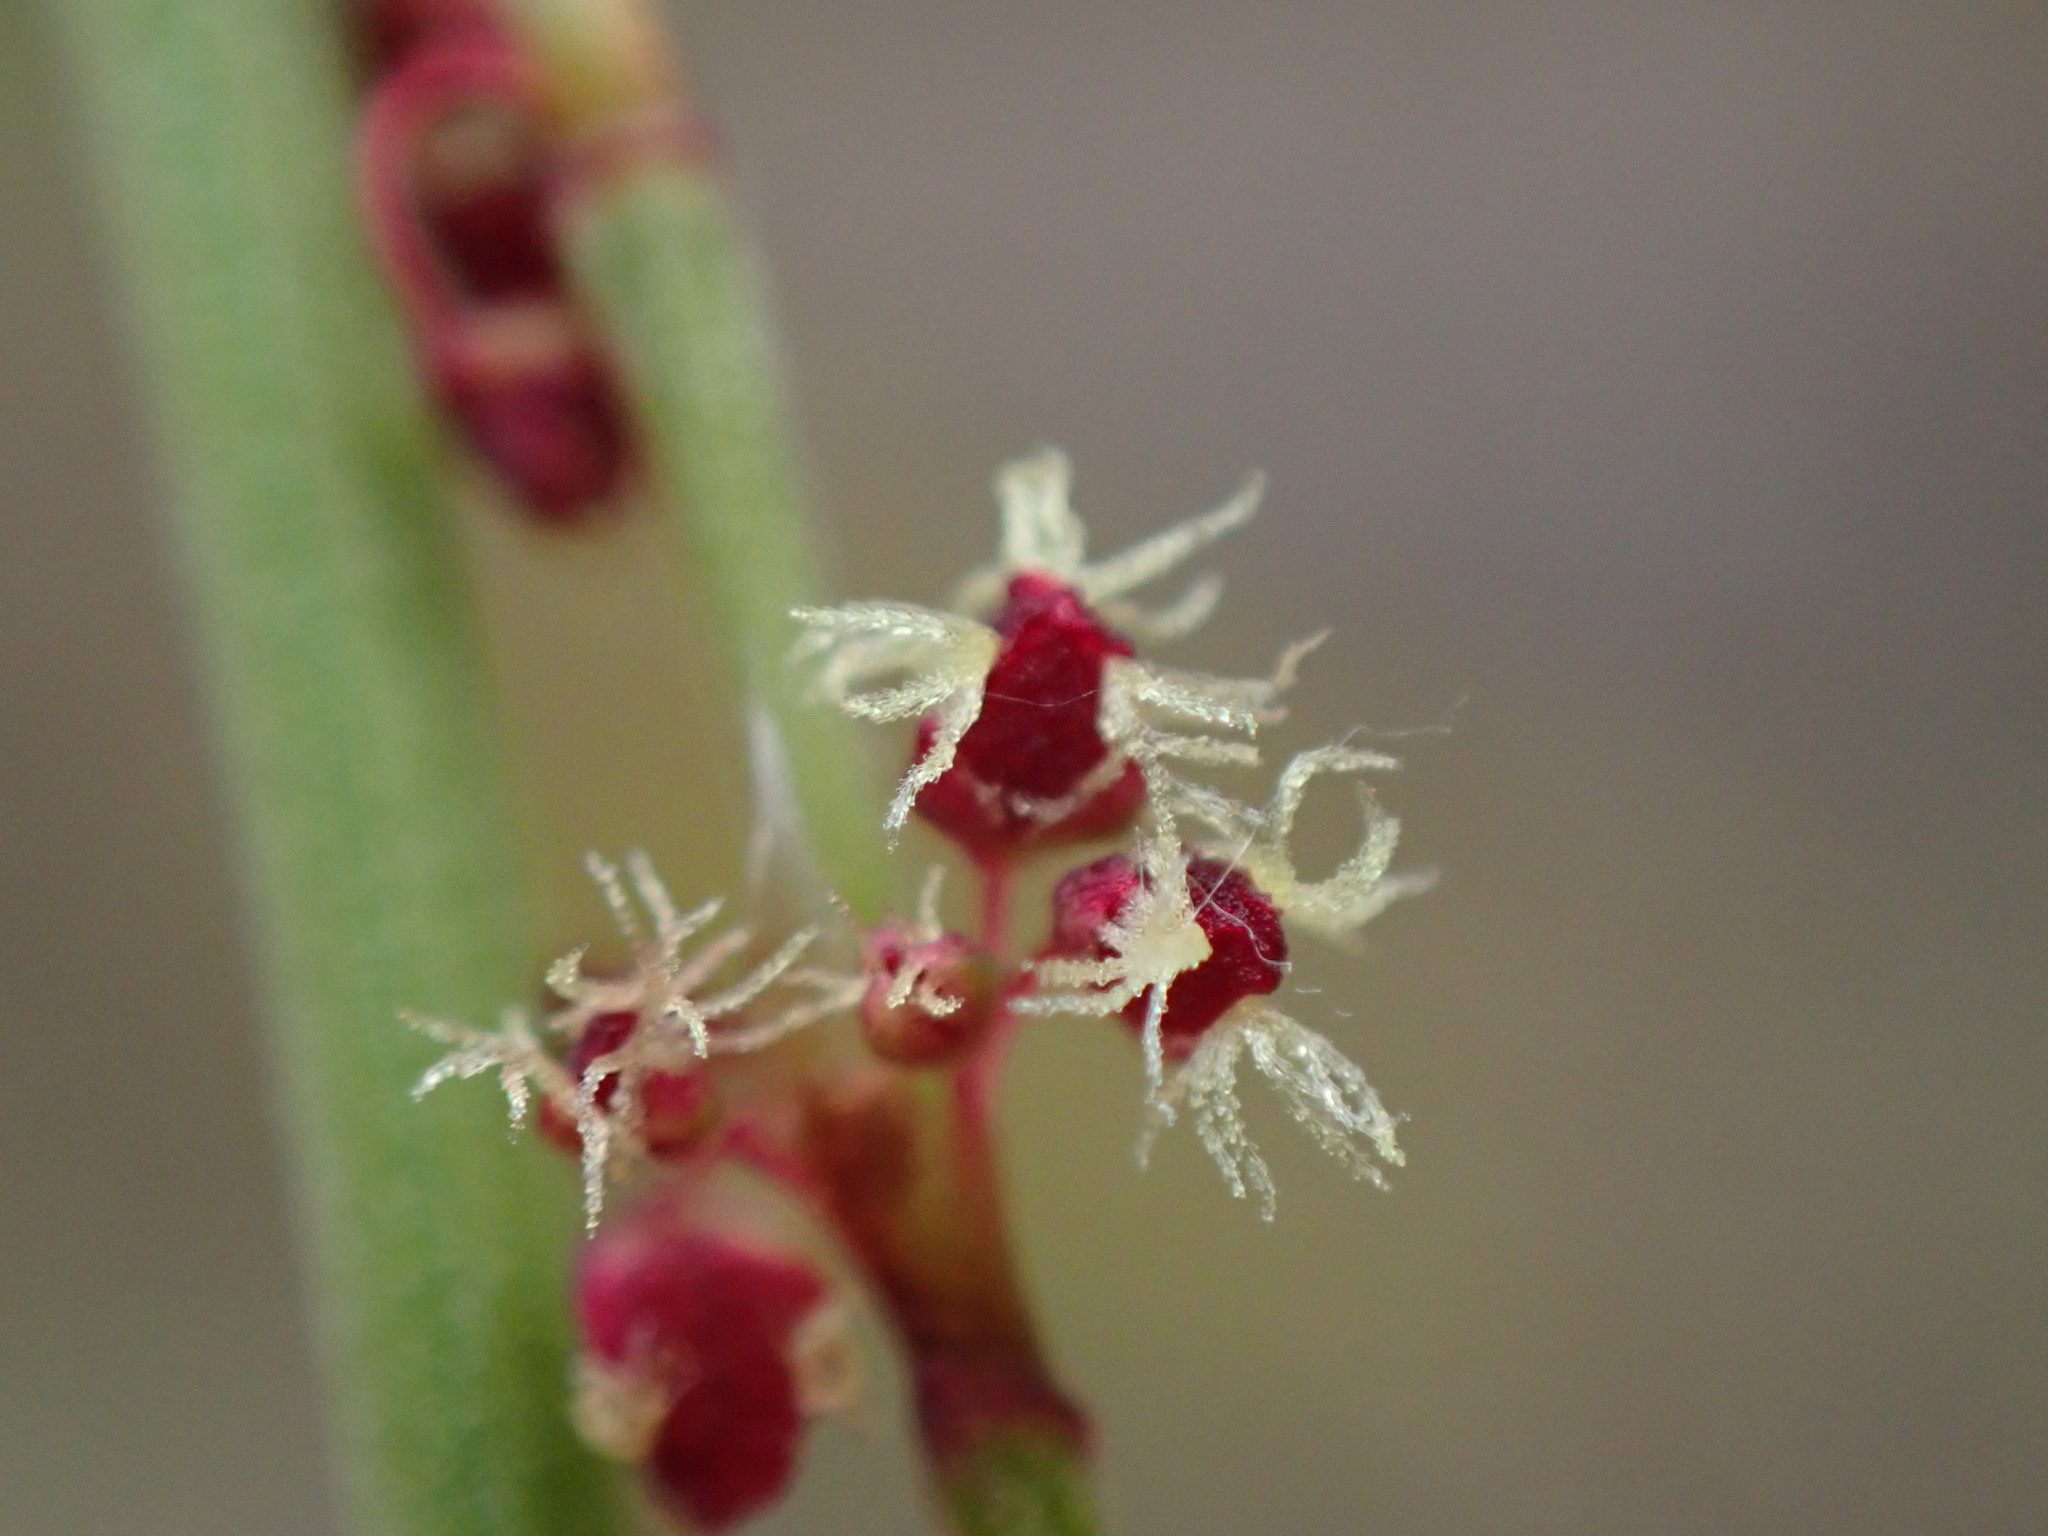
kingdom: Plantae
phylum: Tracheophyta
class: Magnoliopsida
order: Caryophyllales
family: Polygonaceae
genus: Rumex
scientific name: Rumex acetosella
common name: Common sheep sorrel
